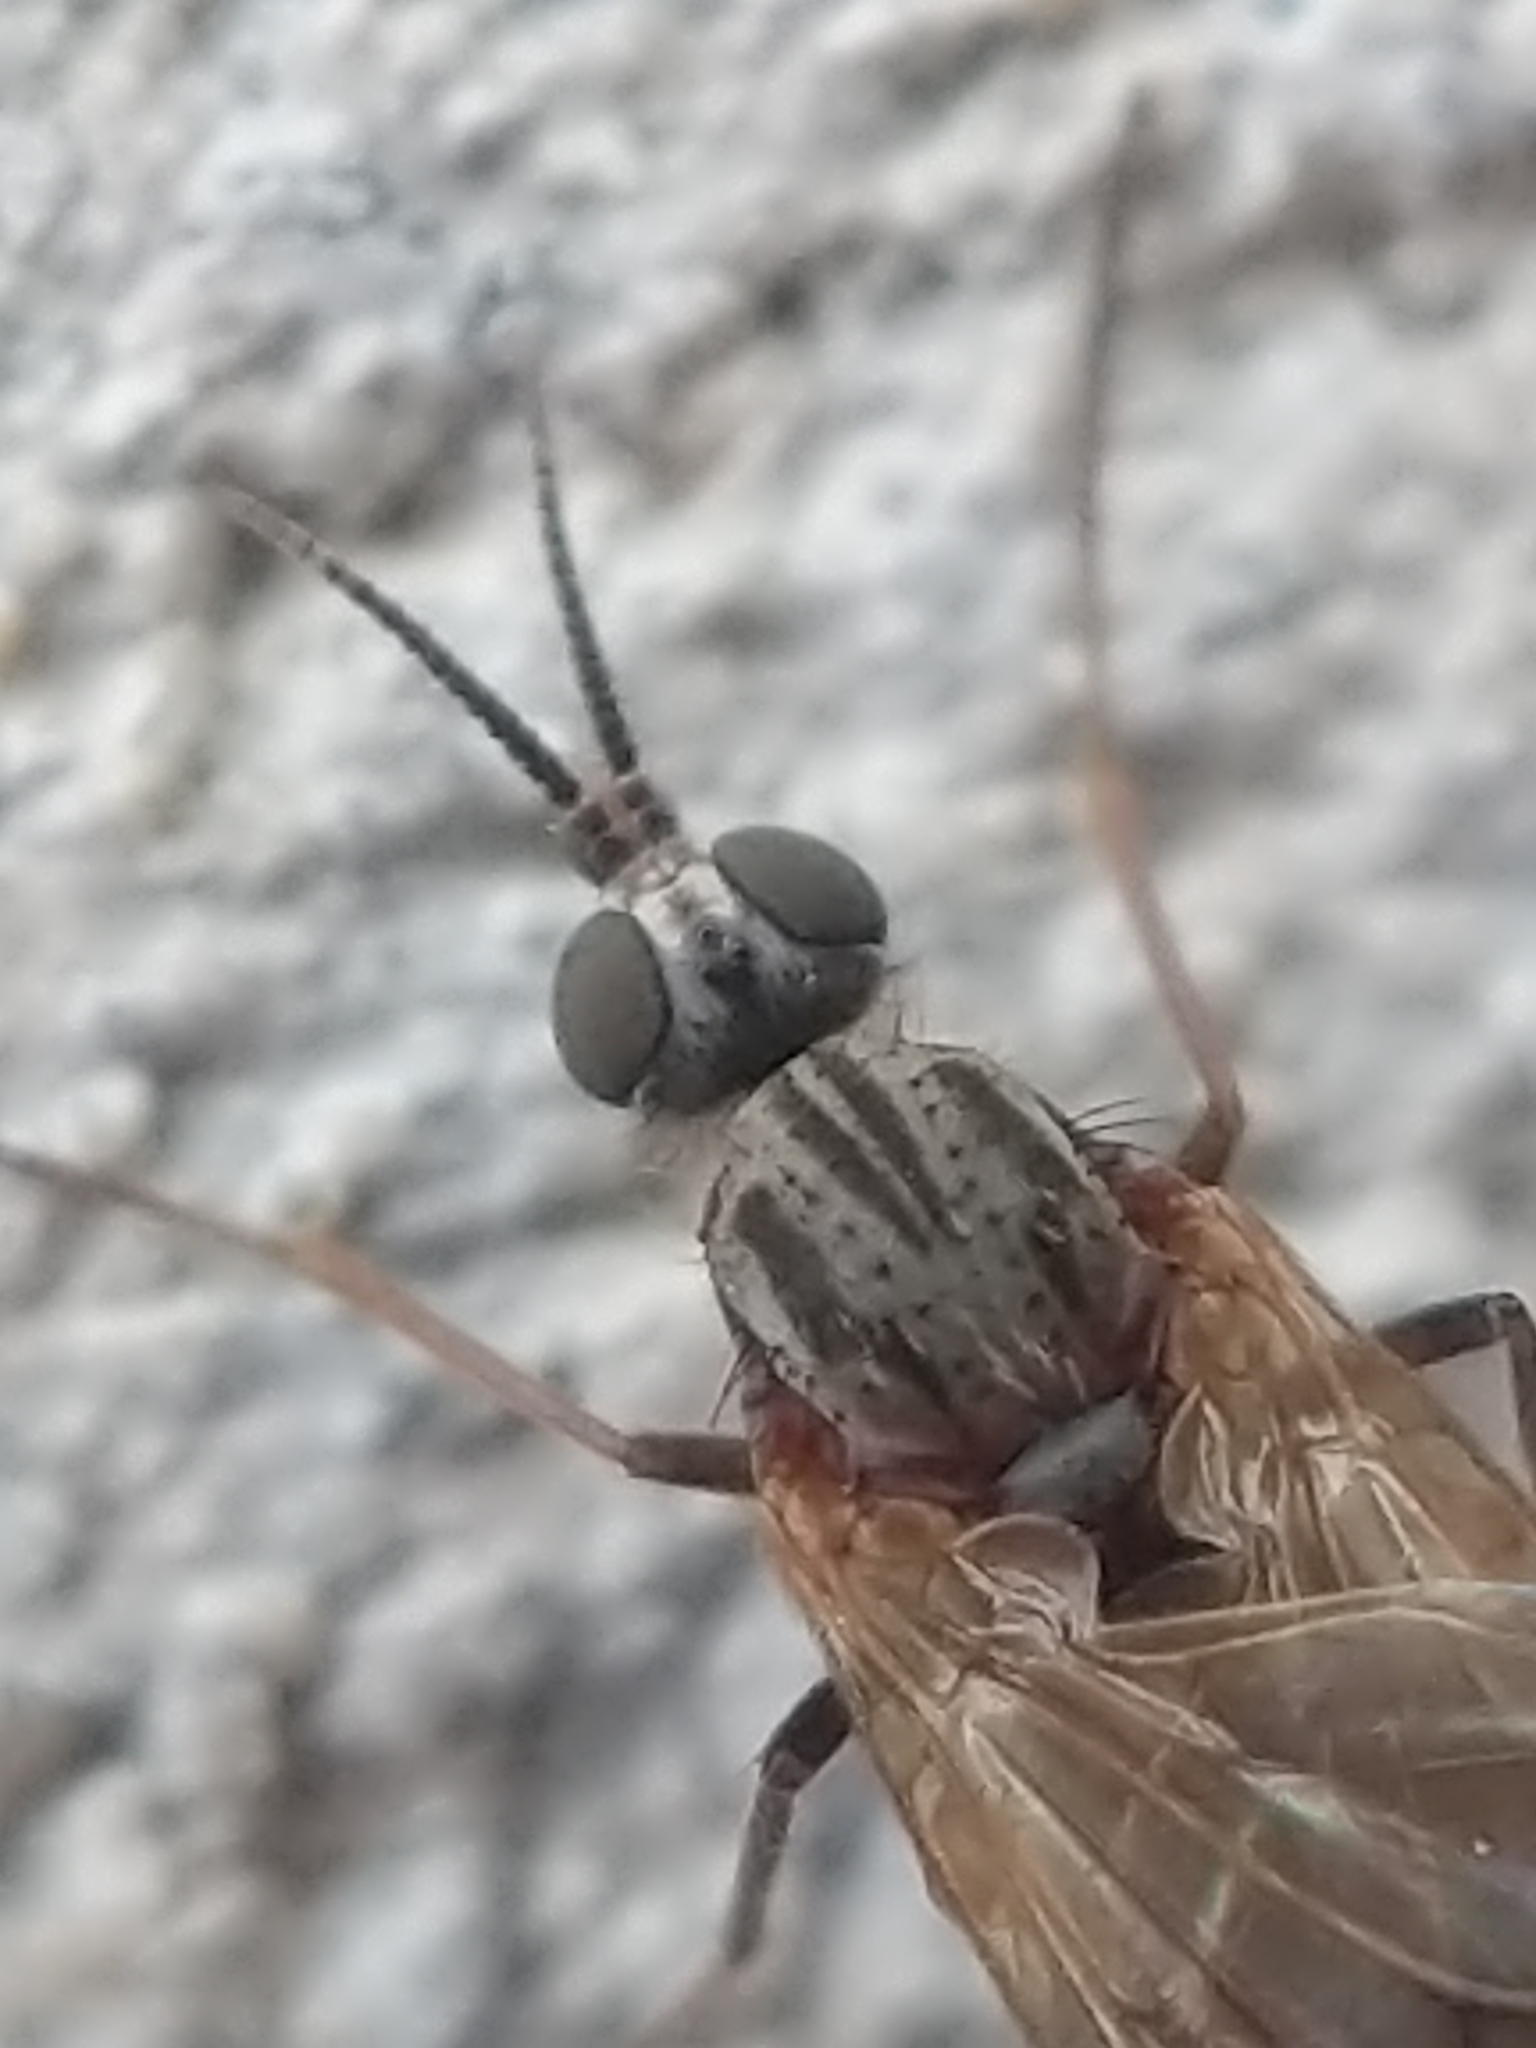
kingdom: Animalia
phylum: Arthropoda
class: Insecta
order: Diptera
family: Anisopodidae
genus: Sylvicola
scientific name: Sylvicola alternata
